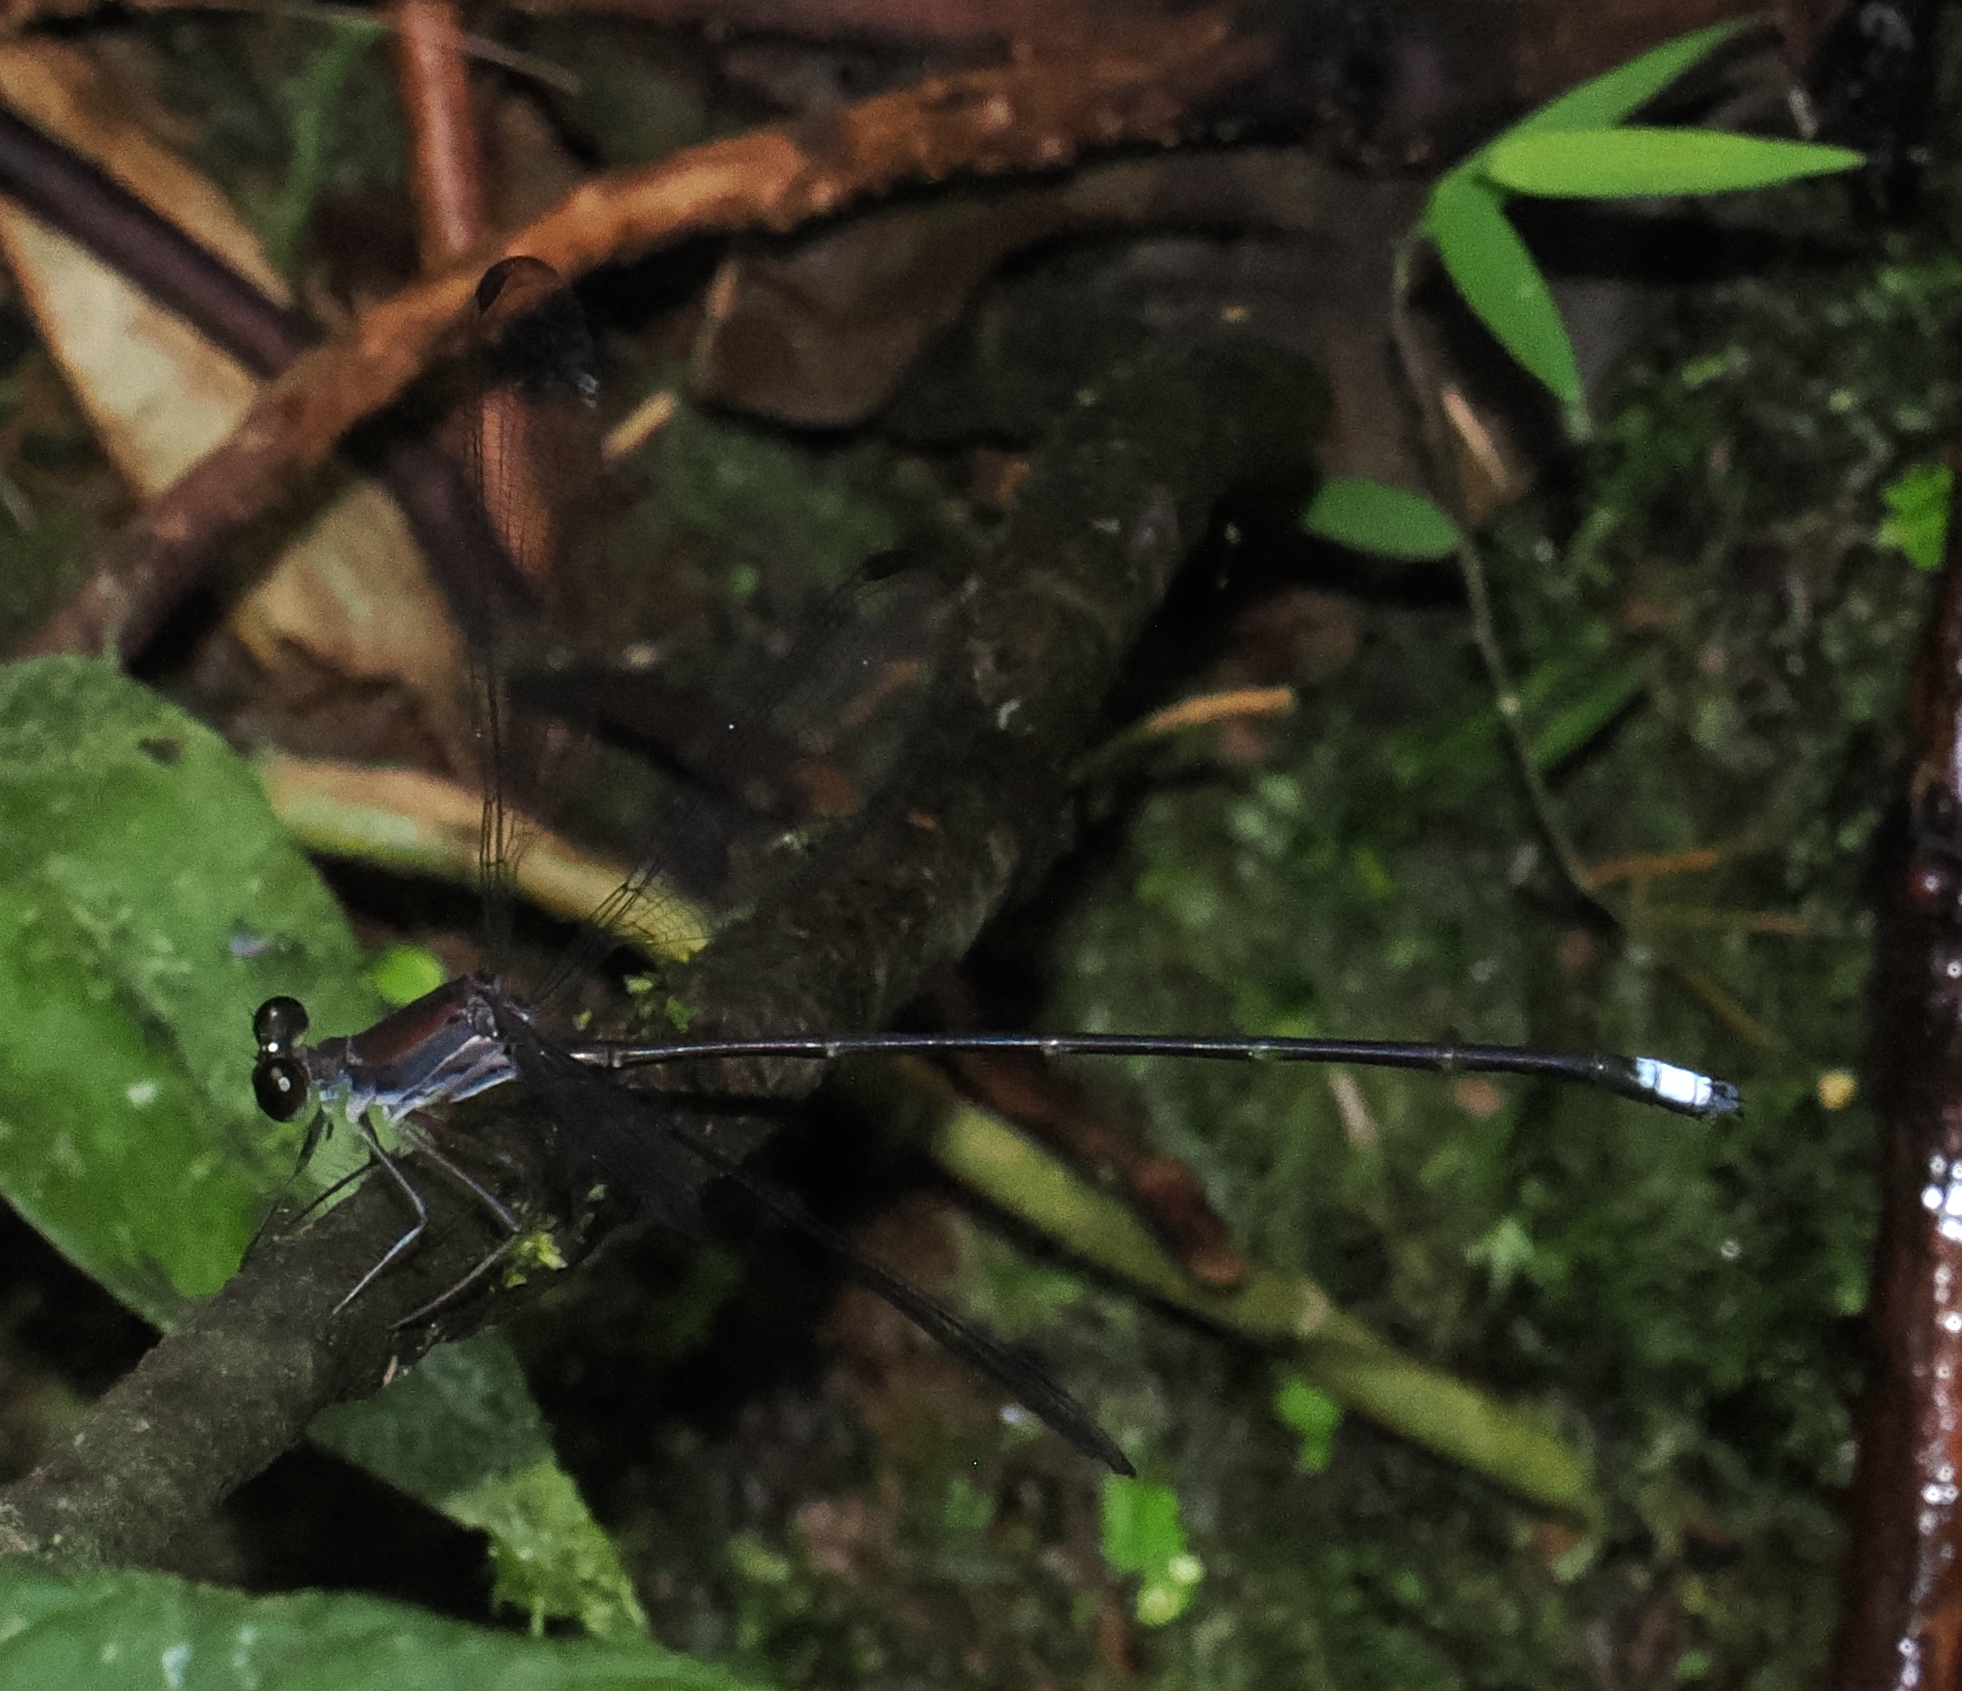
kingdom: Animalia
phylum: Arthropoda
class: Insecta
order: Odonata
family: Philogeniidae
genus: Philogenia
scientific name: Philogenia cristalina
